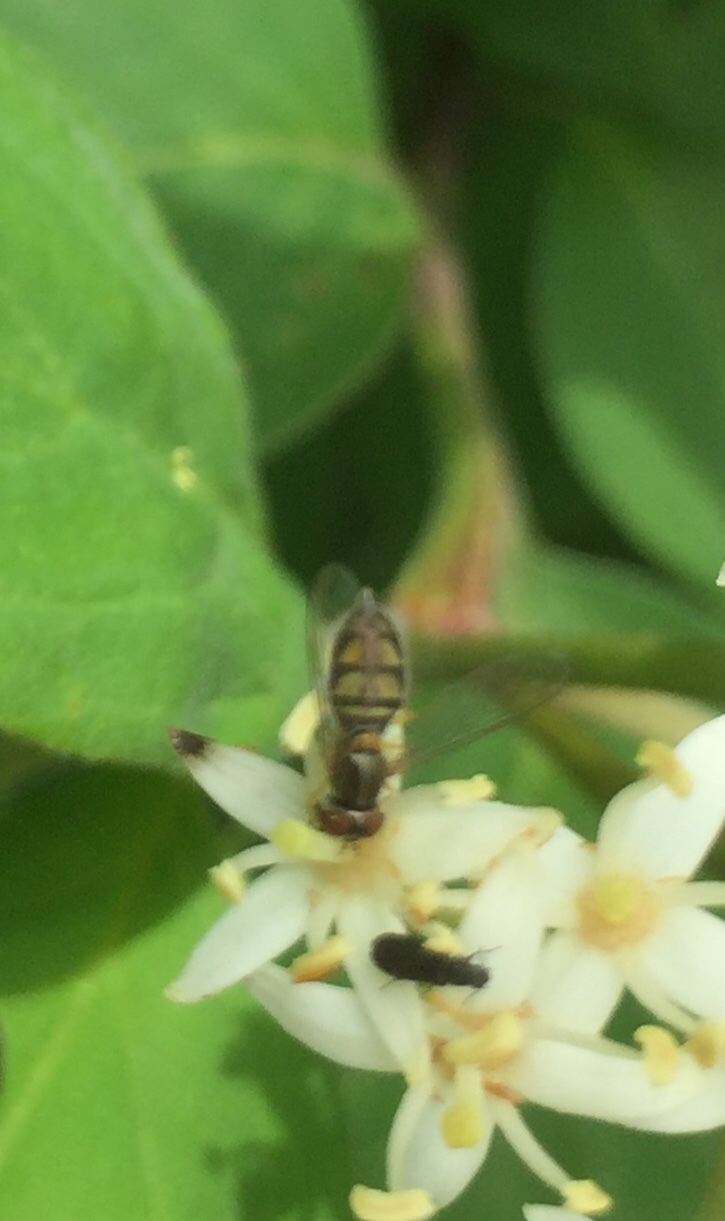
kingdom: Animalia
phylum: Arthropoda
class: Insecta
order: Diptera
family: Syrphidae
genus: Toxomerus
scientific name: Toxomerus marginatus
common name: Syrphid fly
